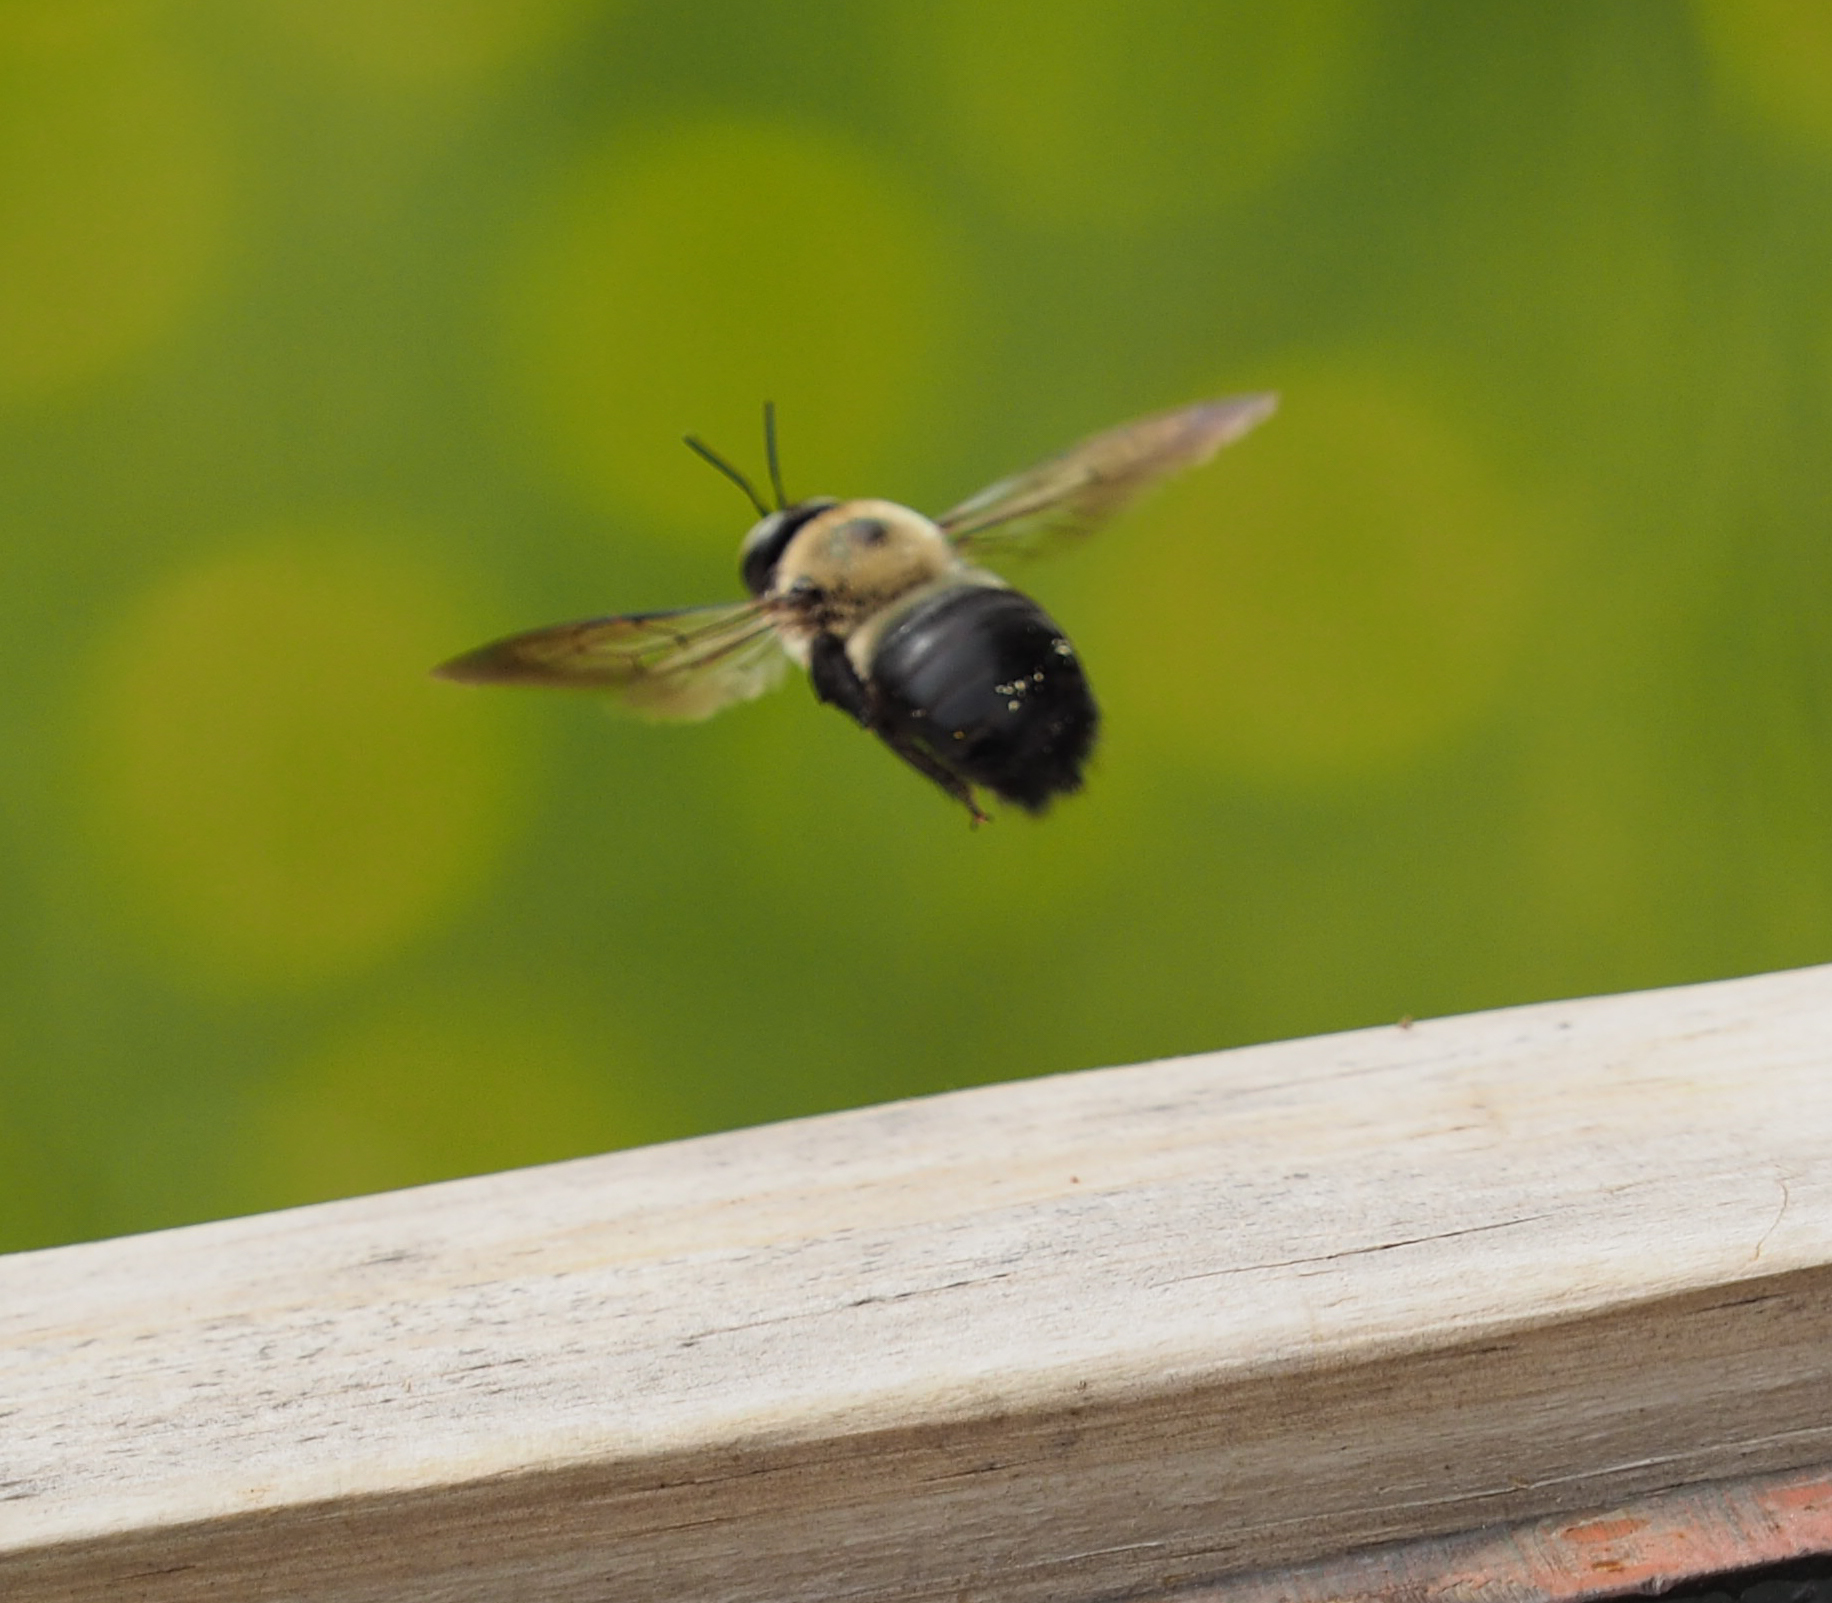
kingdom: Animalia
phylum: Arthropoda
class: Insecta
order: Hymenoptera
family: Apidae
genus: Xylocopa
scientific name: Xylocopa virginica
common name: Carpenter bee
